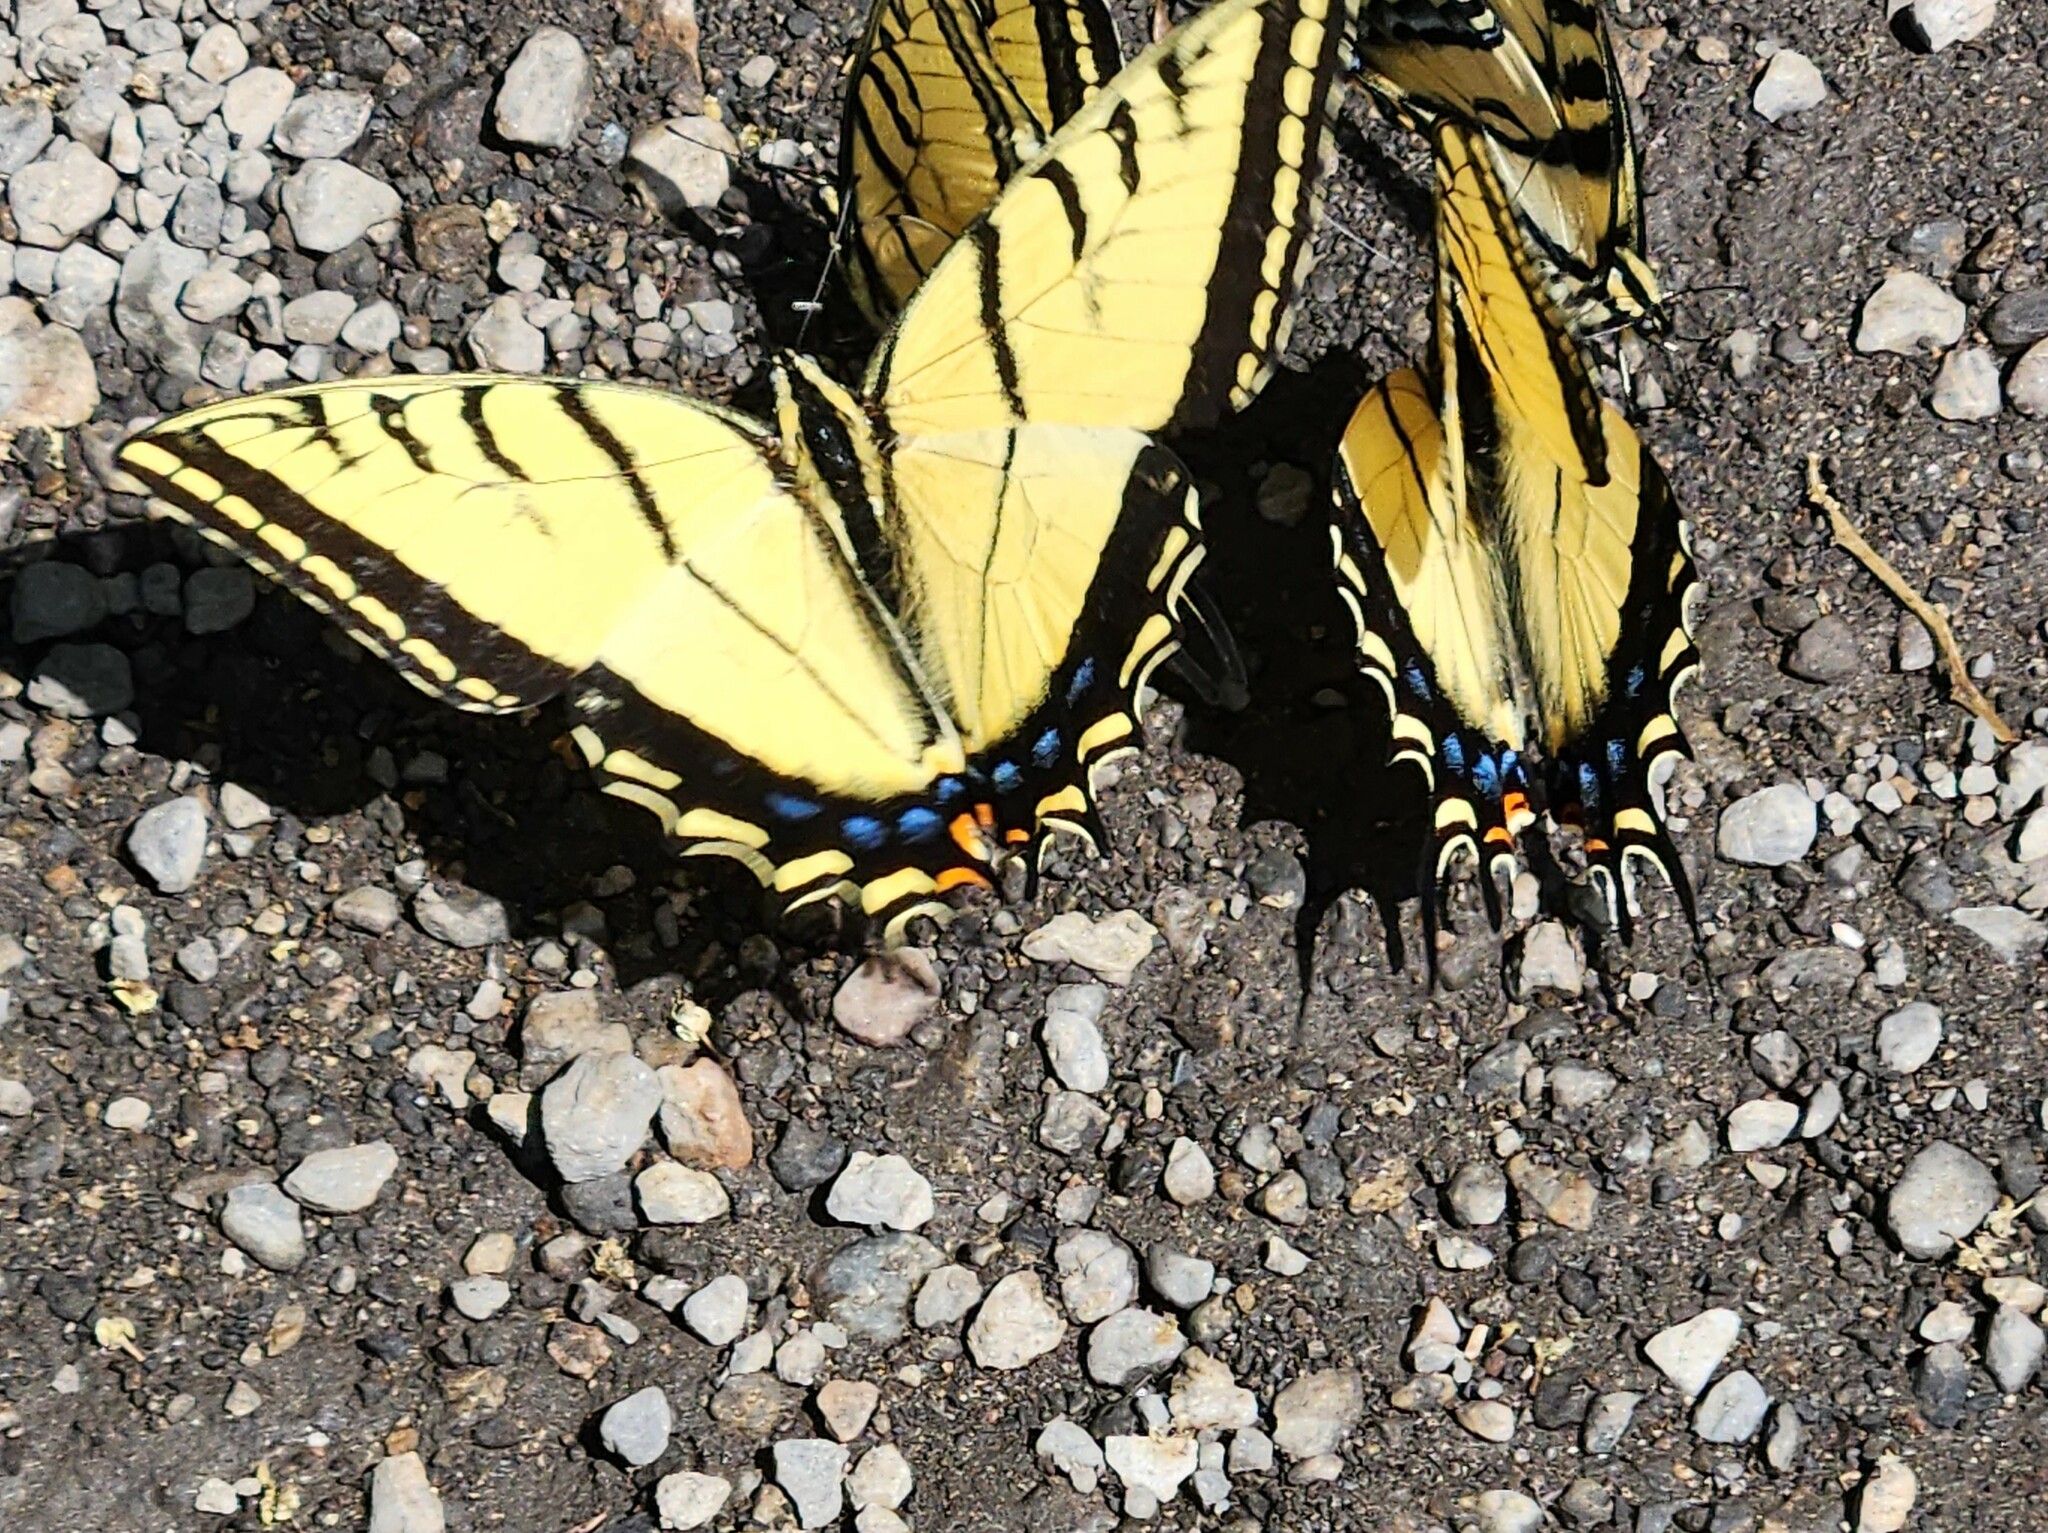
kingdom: Animalia
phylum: Arthropoda
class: Insecta
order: Lepidoptera
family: Papilionidae
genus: Papilio
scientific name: Papilio multicaudata
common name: Two-tailed tiger swallowtail
